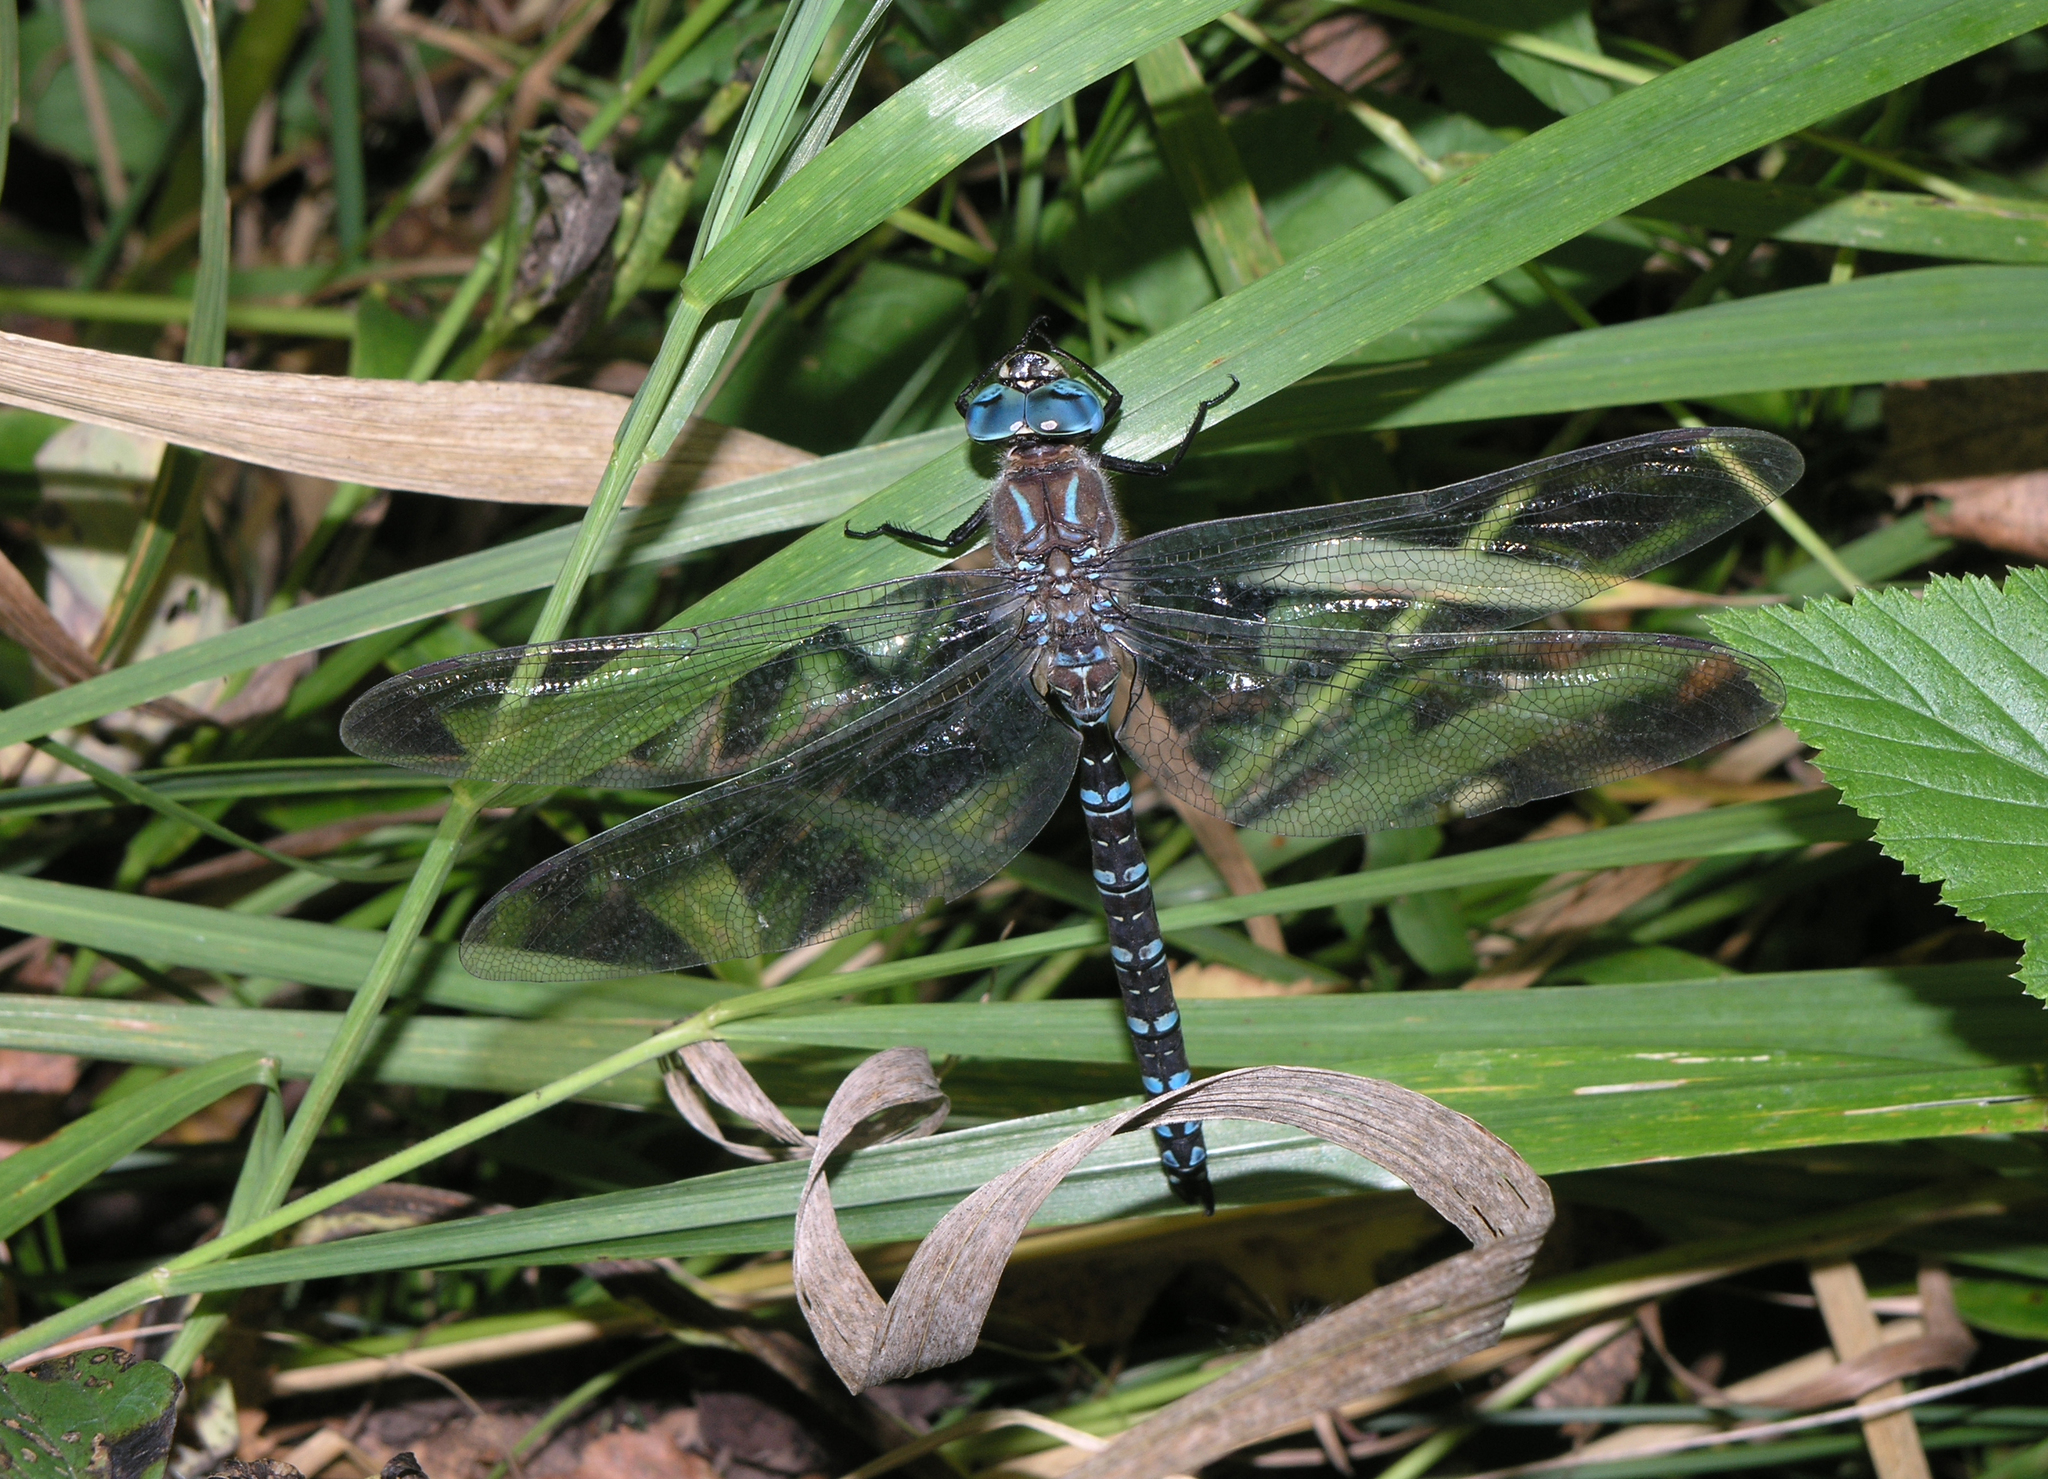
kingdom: Animalia
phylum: Arthropoda
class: Insecta
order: Odonata
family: Aeshnidae
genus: Aeshna
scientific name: Aeshna crenata
